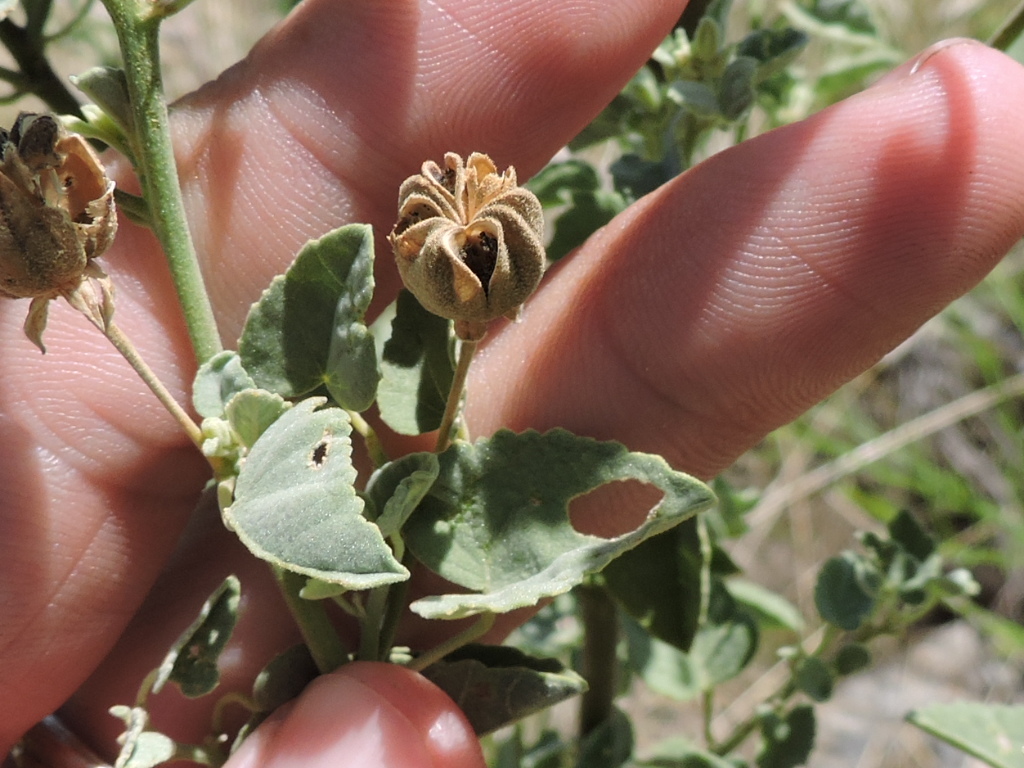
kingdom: Plantae
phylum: Tracheophyta
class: Magnoliopsida
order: Malvales
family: Malvaceae
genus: Abutilon
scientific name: Abutilon fruticosum
